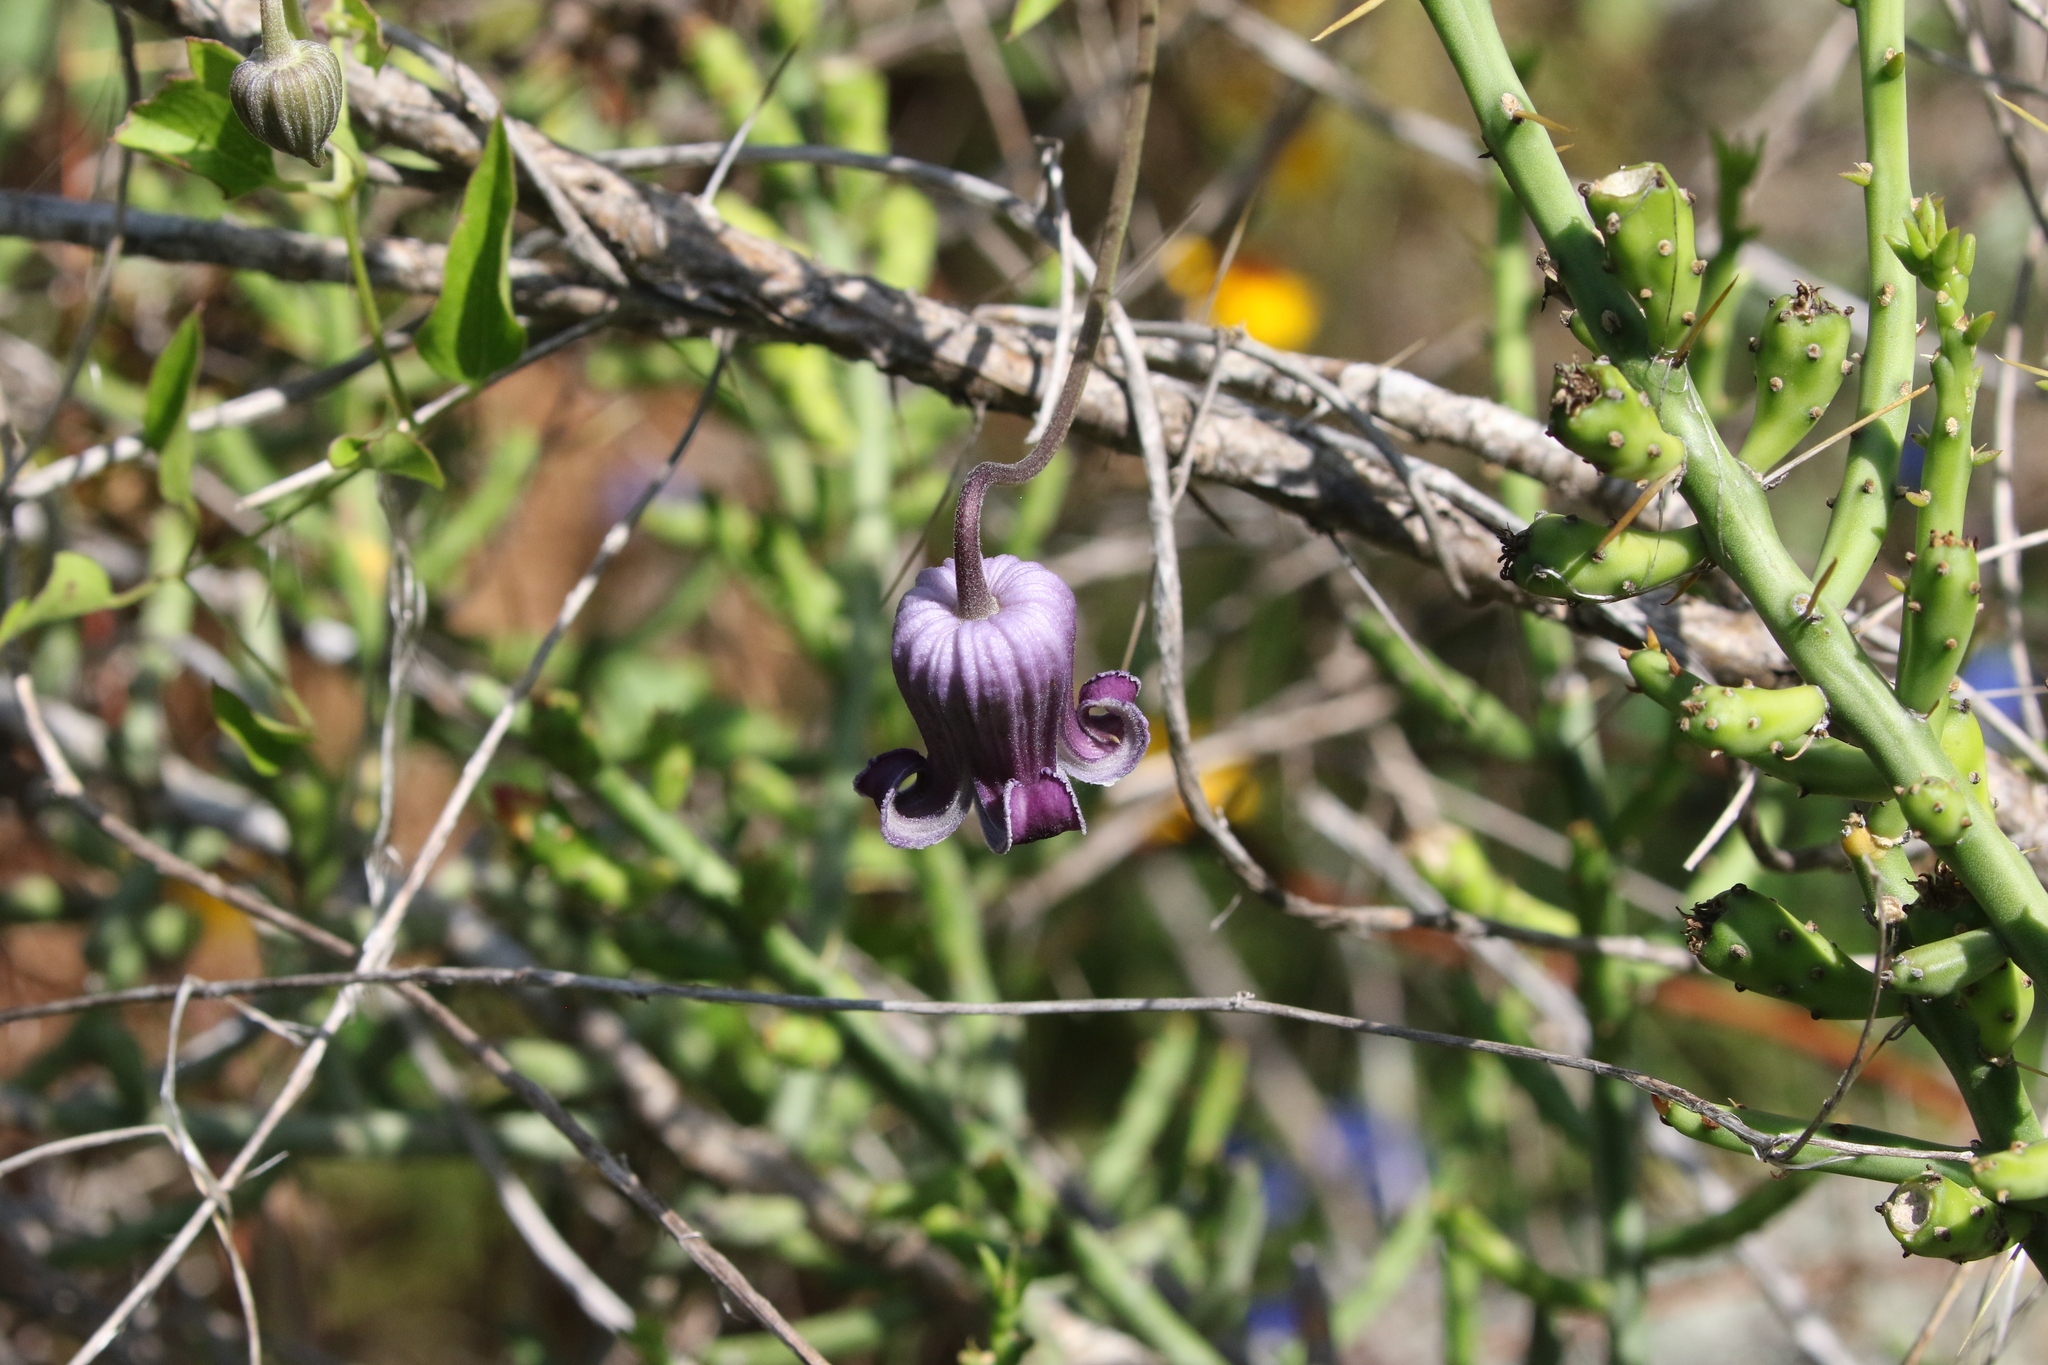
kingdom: Plantae
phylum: Tracheophyta
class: Magnoliopsida
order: Ranunculales
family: Ranunculaceae
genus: Clematis
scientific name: Clematis pitcheri
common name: Bellflower clematis
